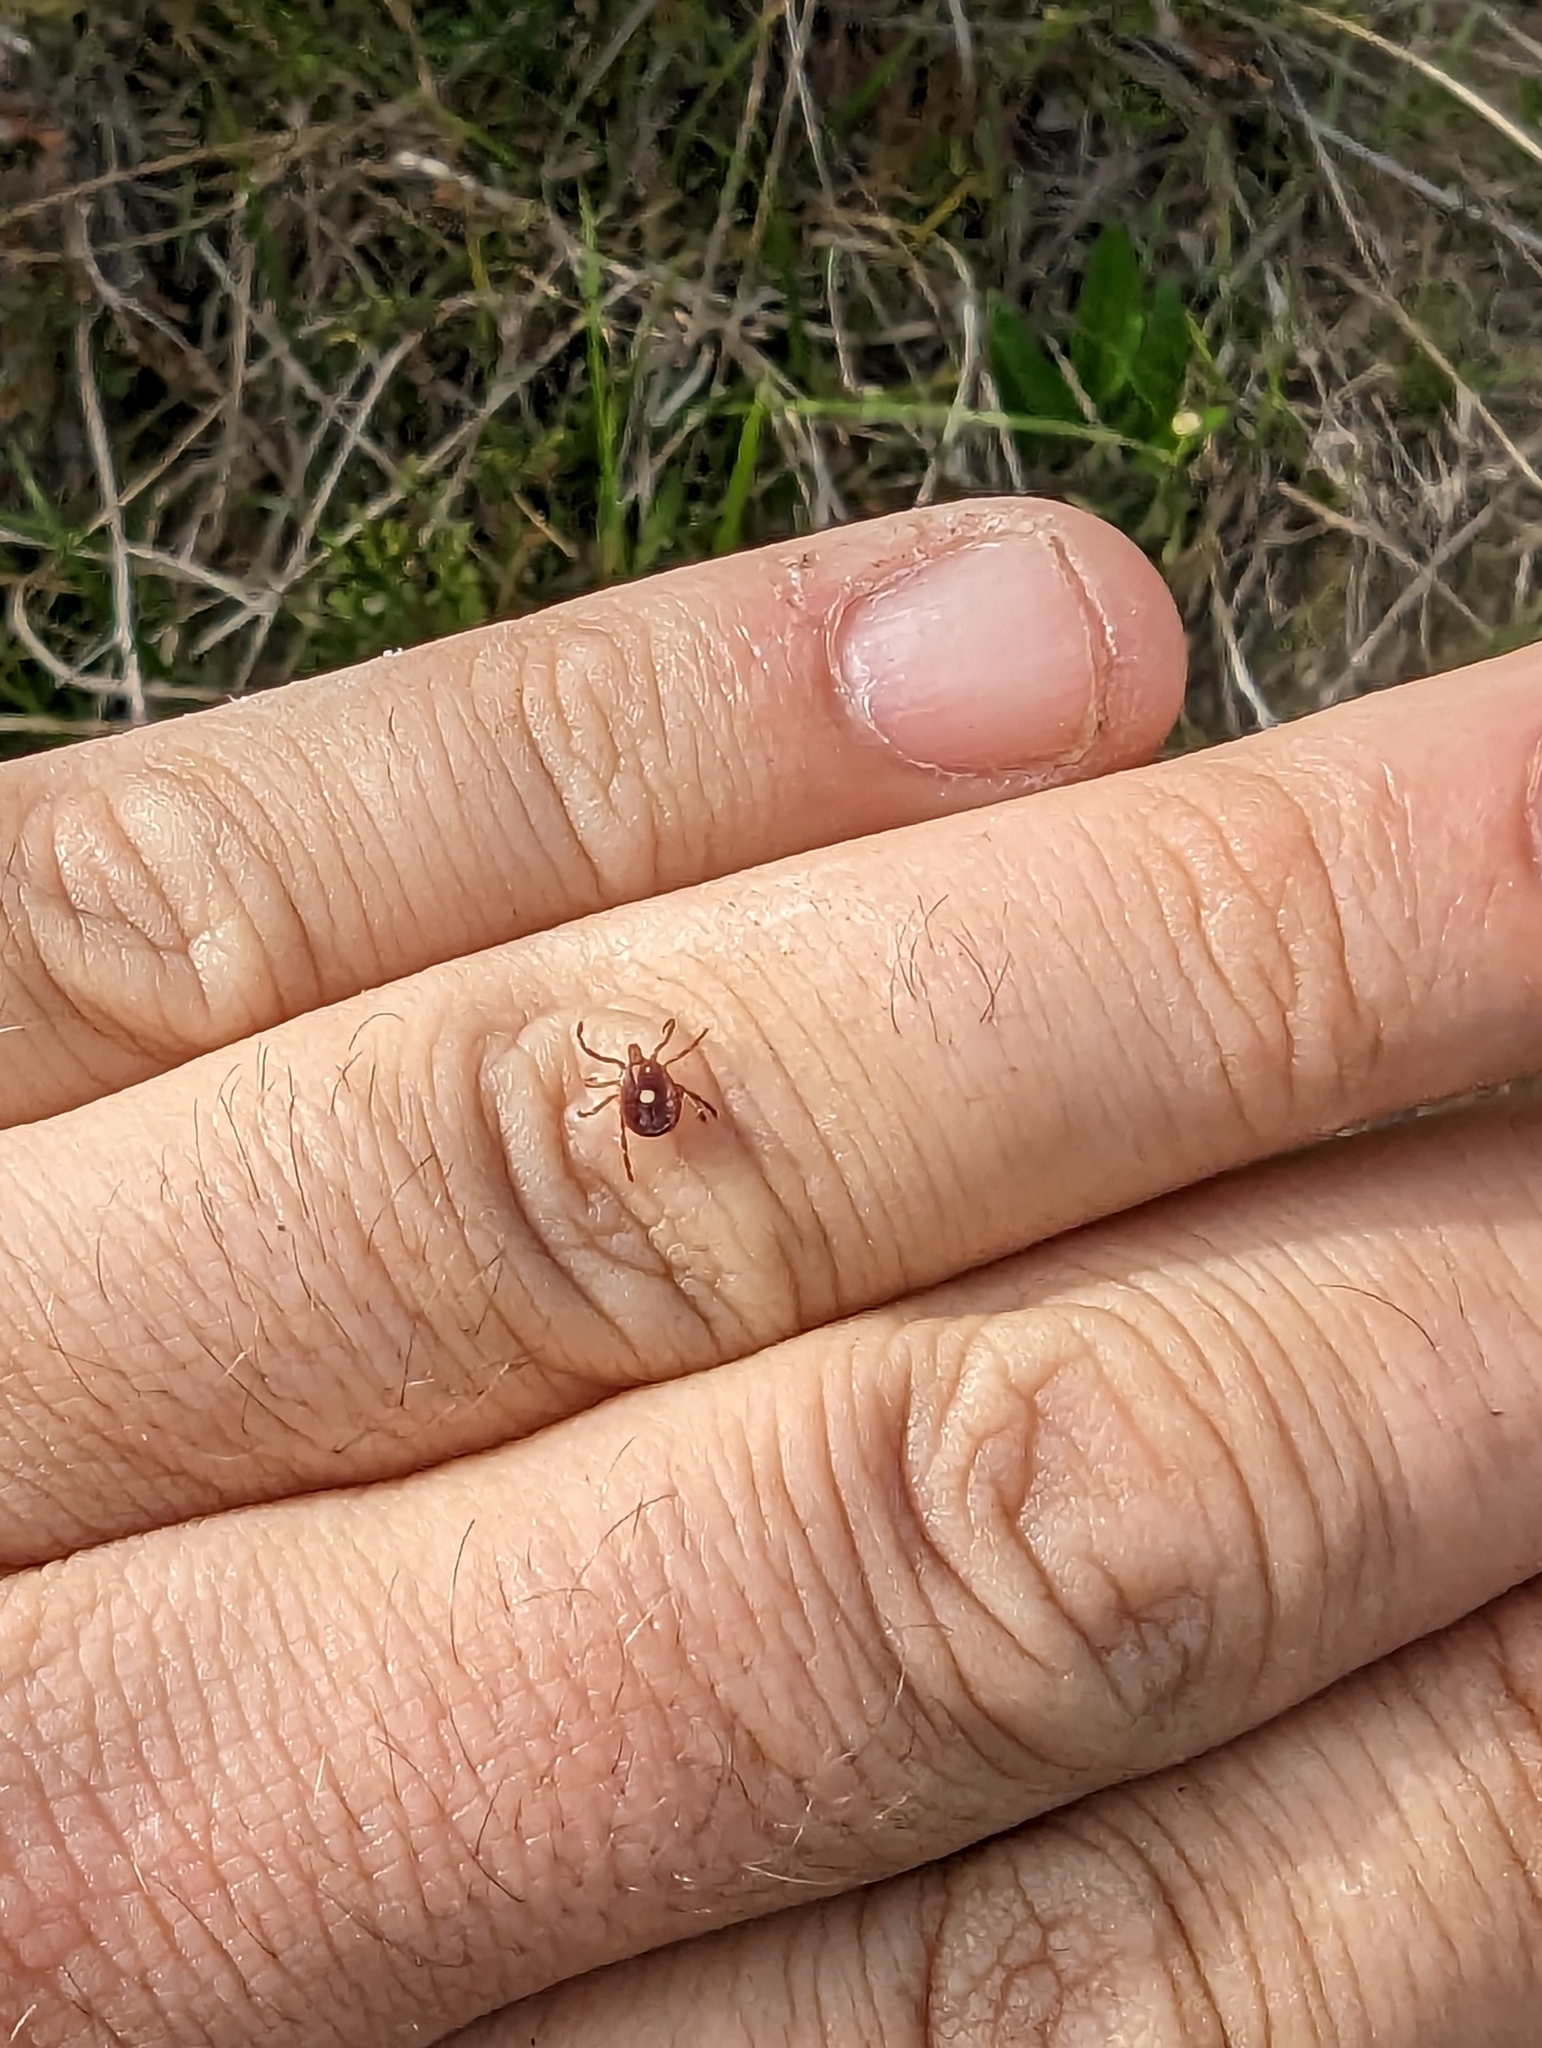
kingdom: Animalia
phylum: Arthropoda
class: Arachnida
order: Ixodida
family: Ixodidae
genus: Amblyomma
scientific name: Amblyomma americanum
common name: Lone star tick
